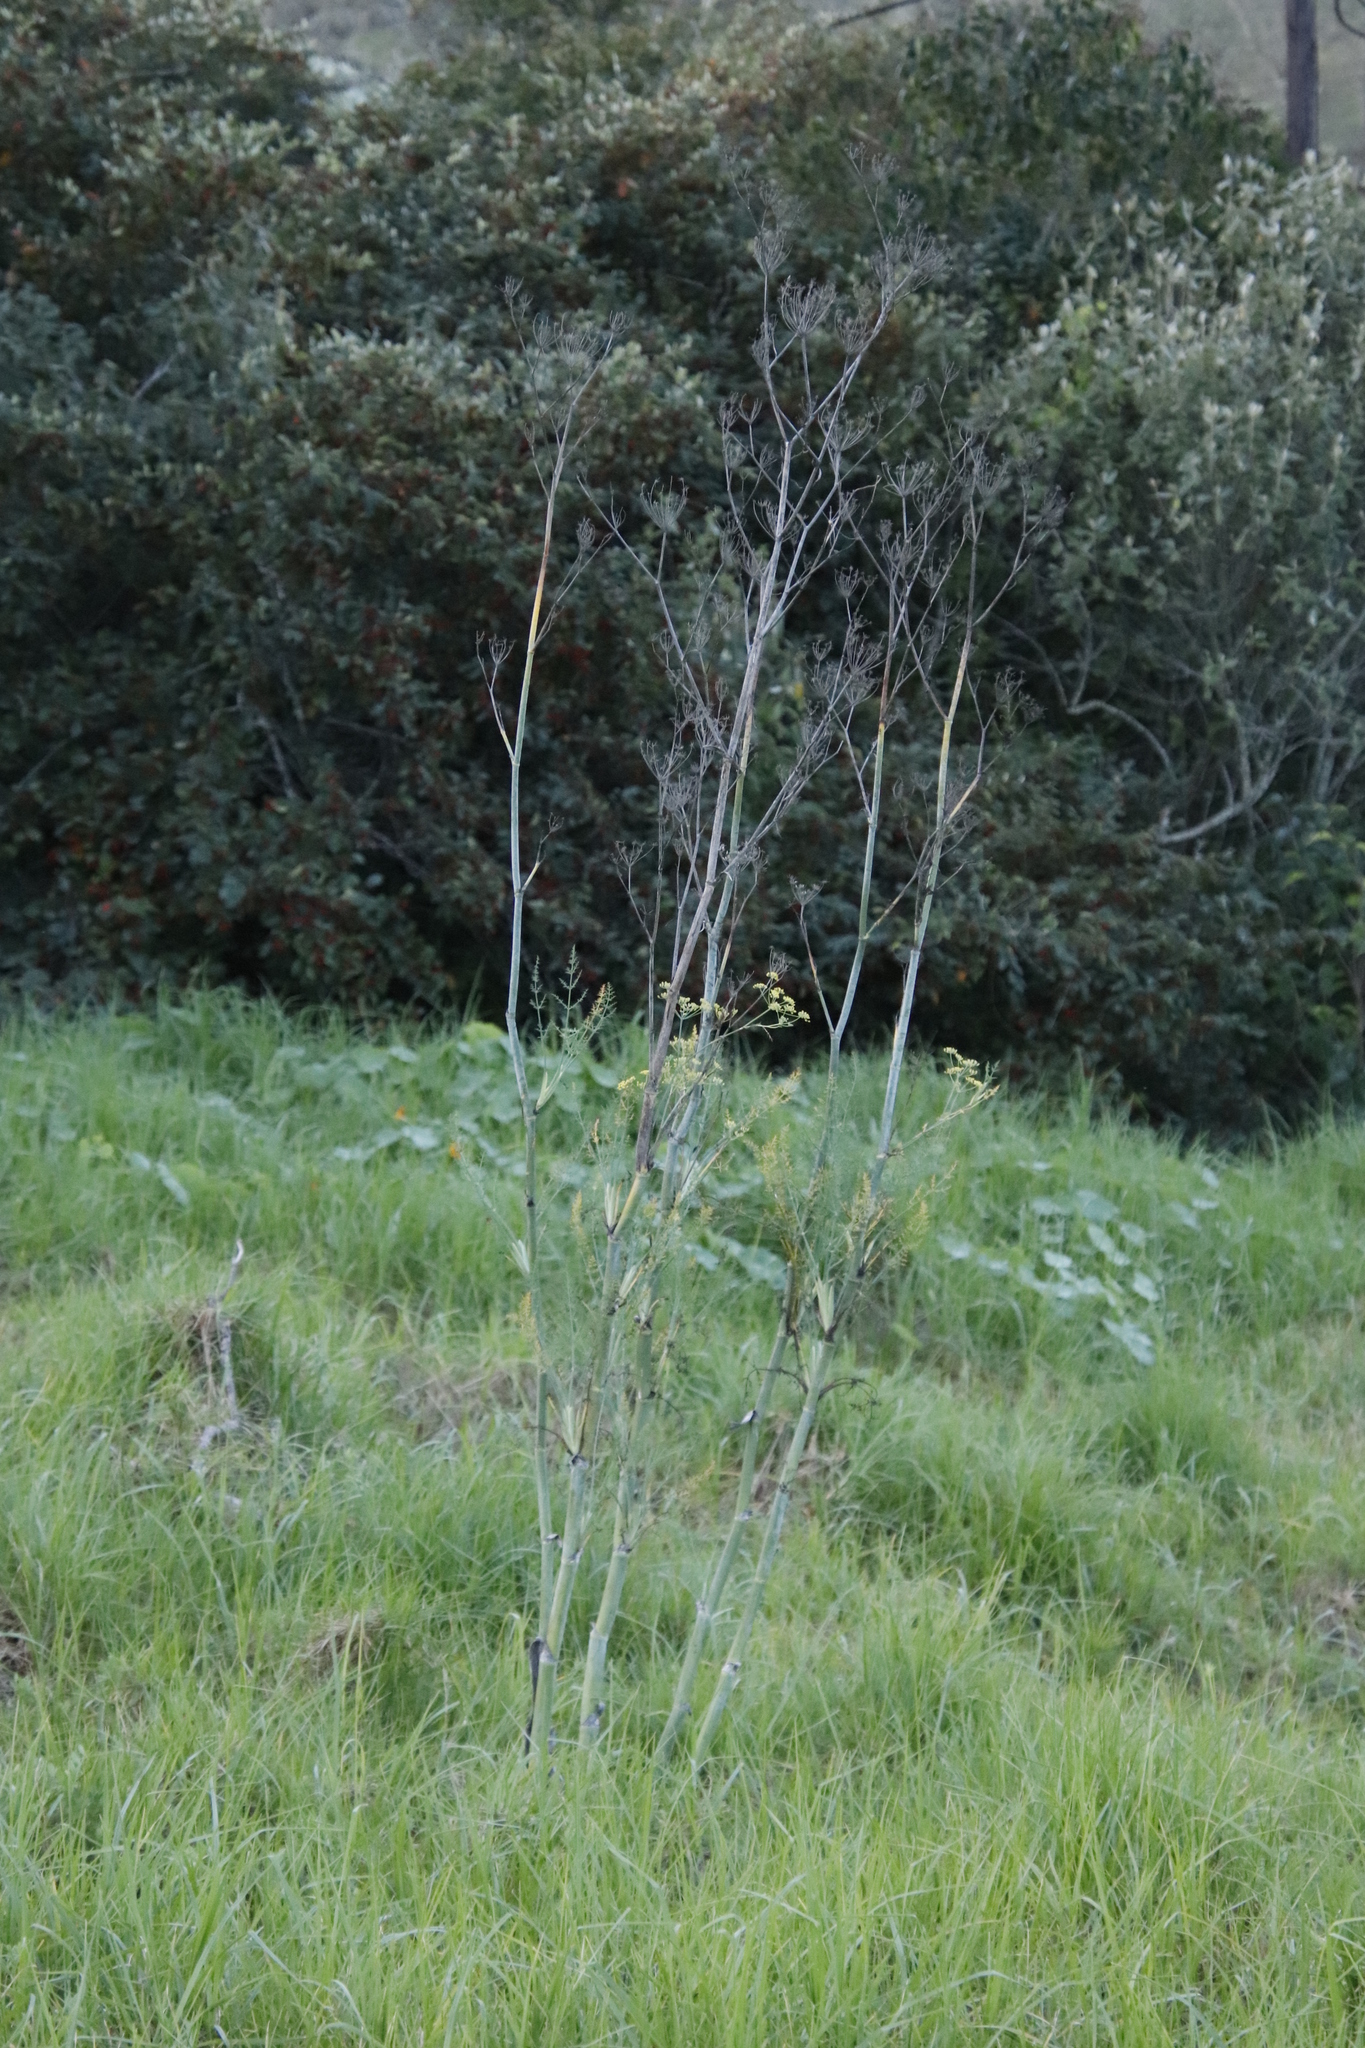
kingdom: Plantae
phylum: Tracheophyta
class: Magnoliopsida
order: Apiales
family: Apiaceae
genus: Foeniculum
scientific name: Foeniculum vulgare
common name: Fennel
